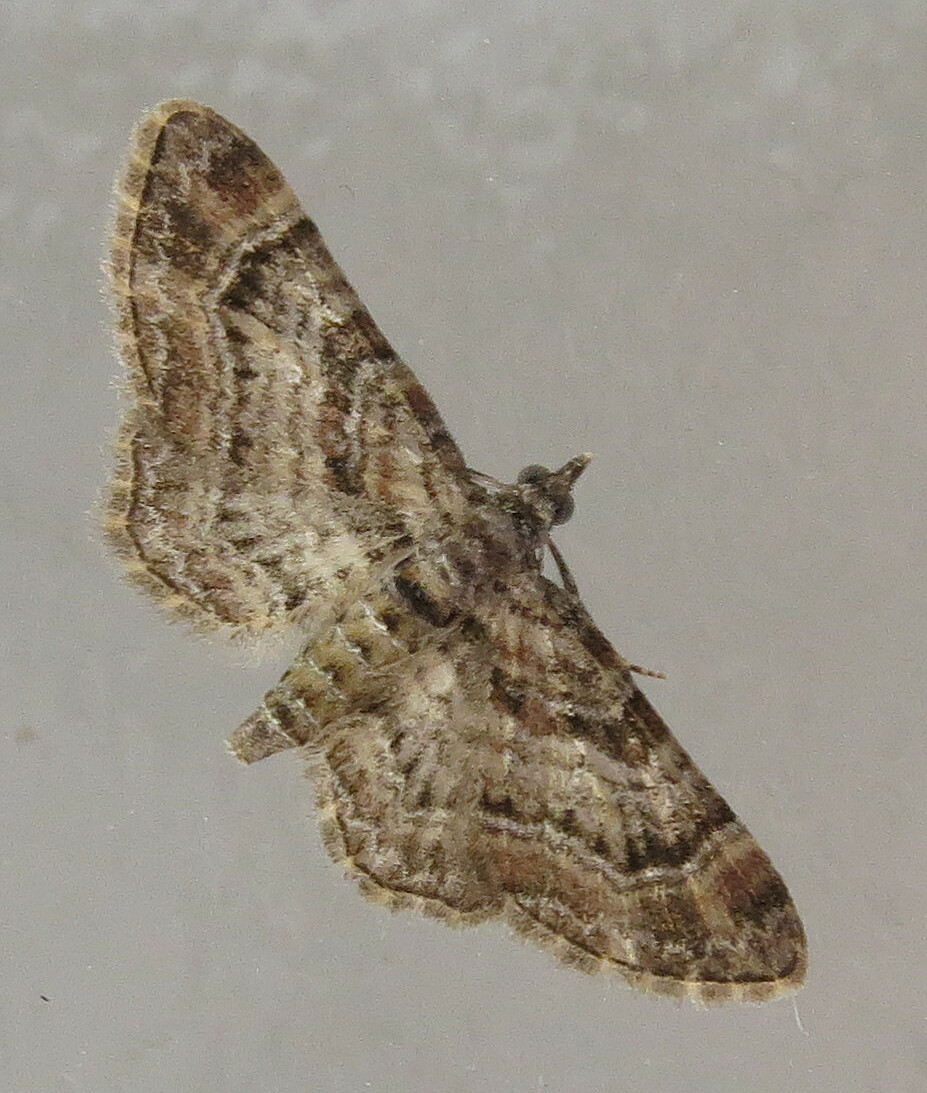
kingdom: Animalia
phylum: Arthropoda
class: Insecta
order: Lepidoptera
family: Geometridae
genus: Gymnoscelis
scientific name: Gymnoscelis rufifasciata
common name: Double-striped pug
